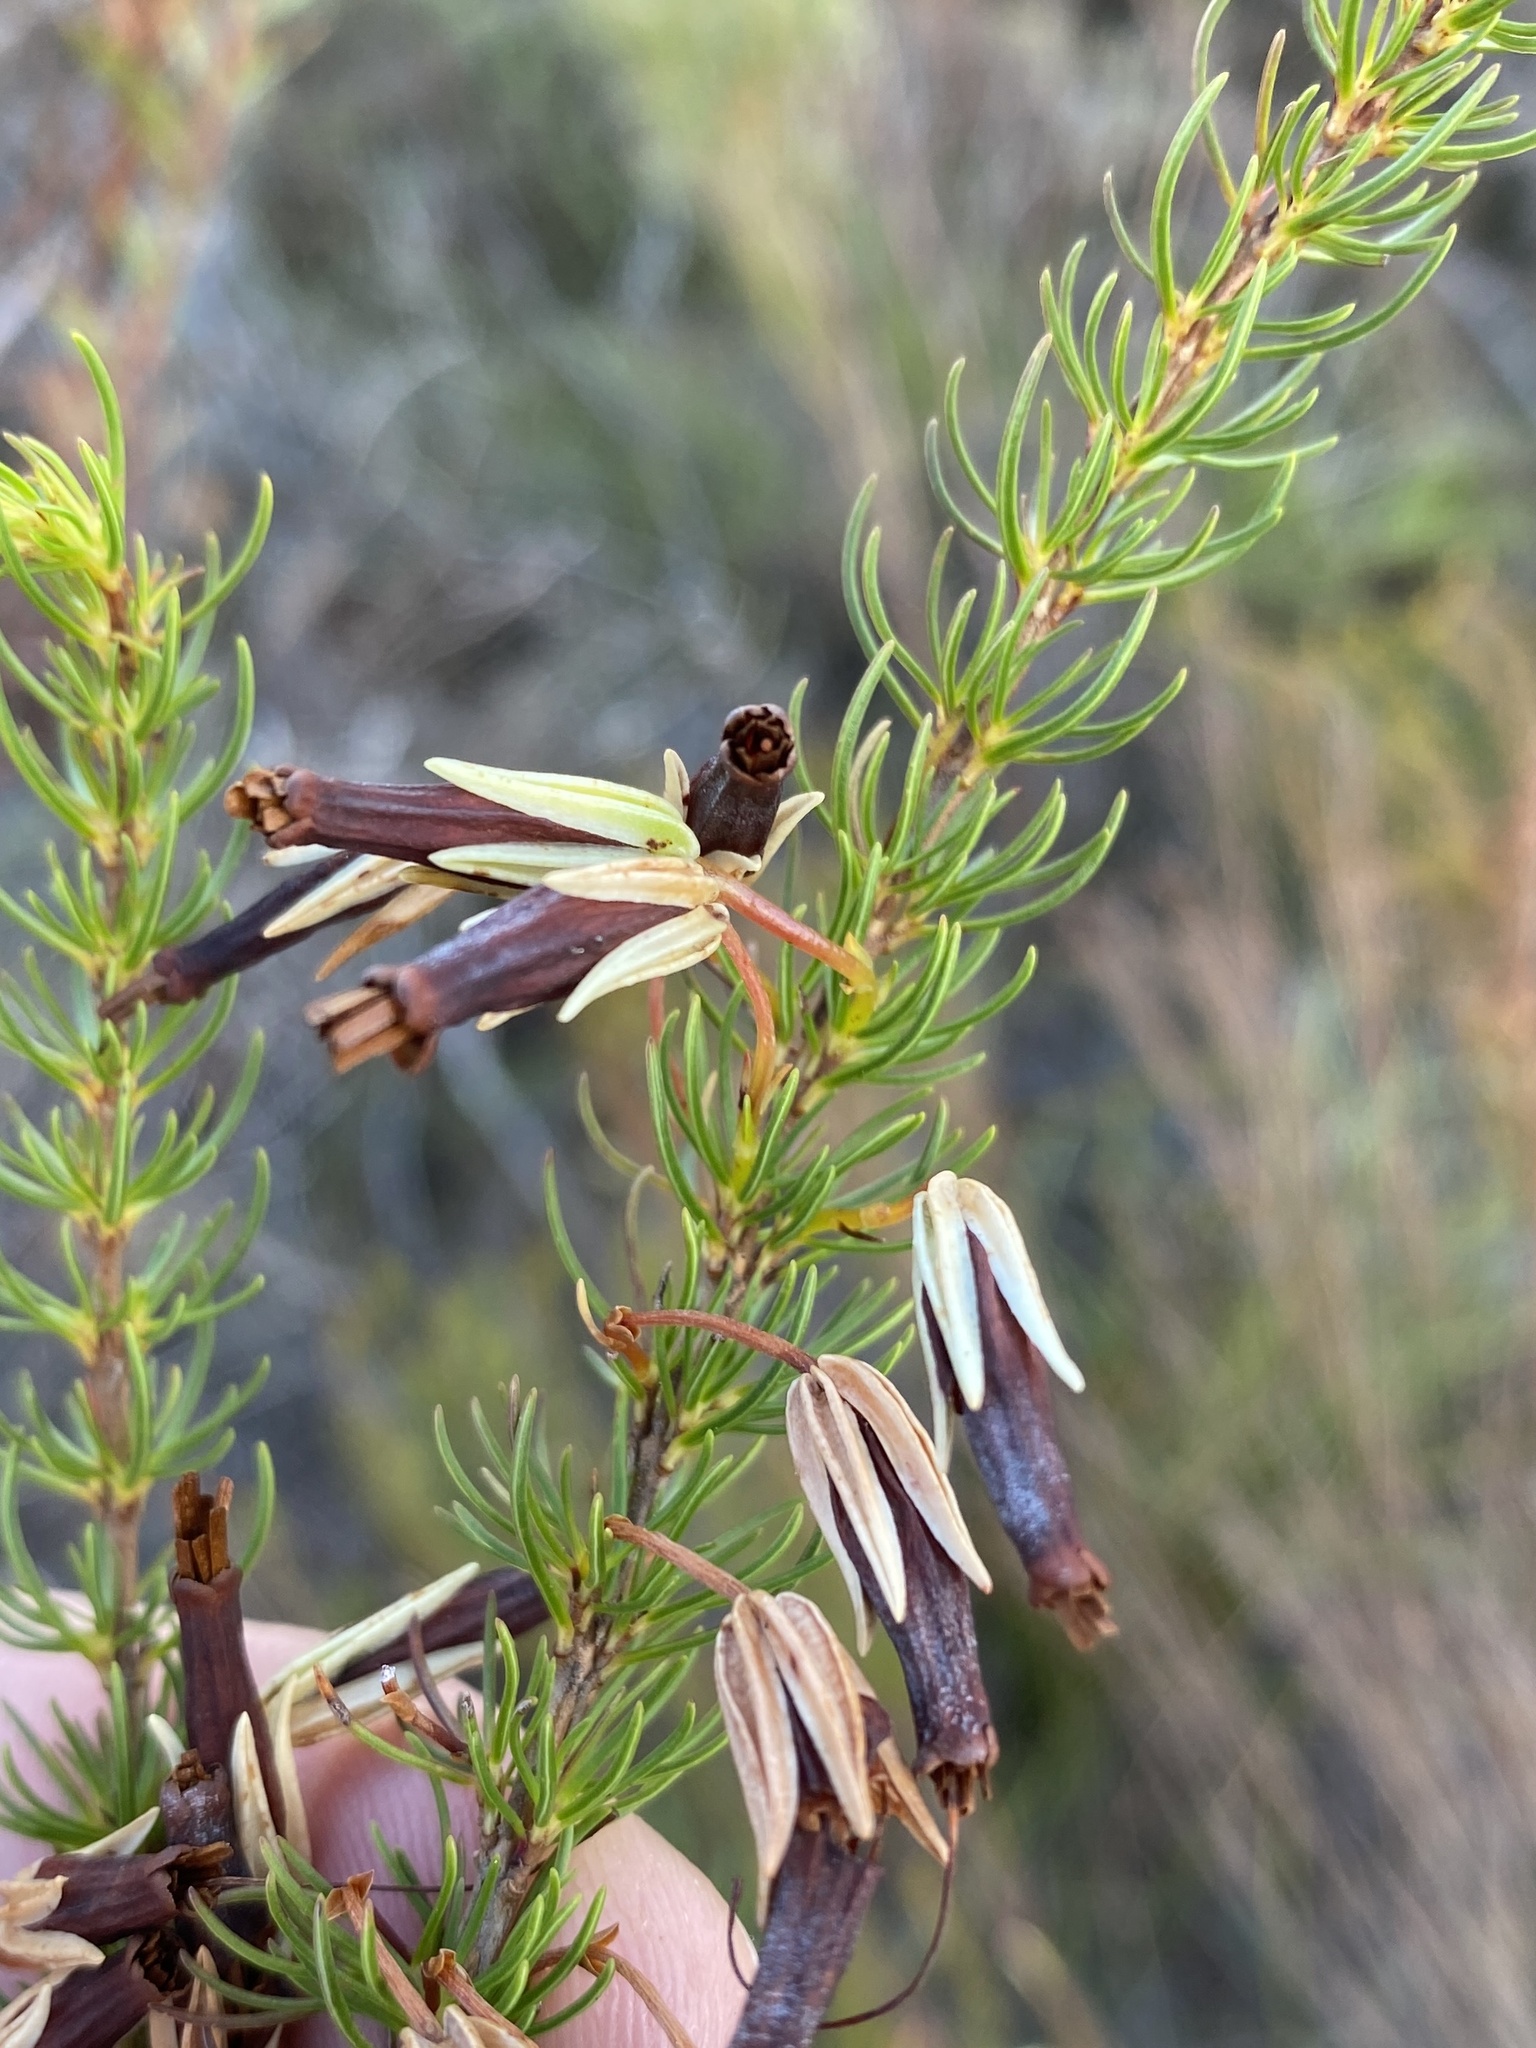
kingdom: Plantae
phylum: Tracheophyta
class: Magnoliopsida
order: Ericales
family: Ericaceae
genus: Erica
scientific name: Erica plukenetii
